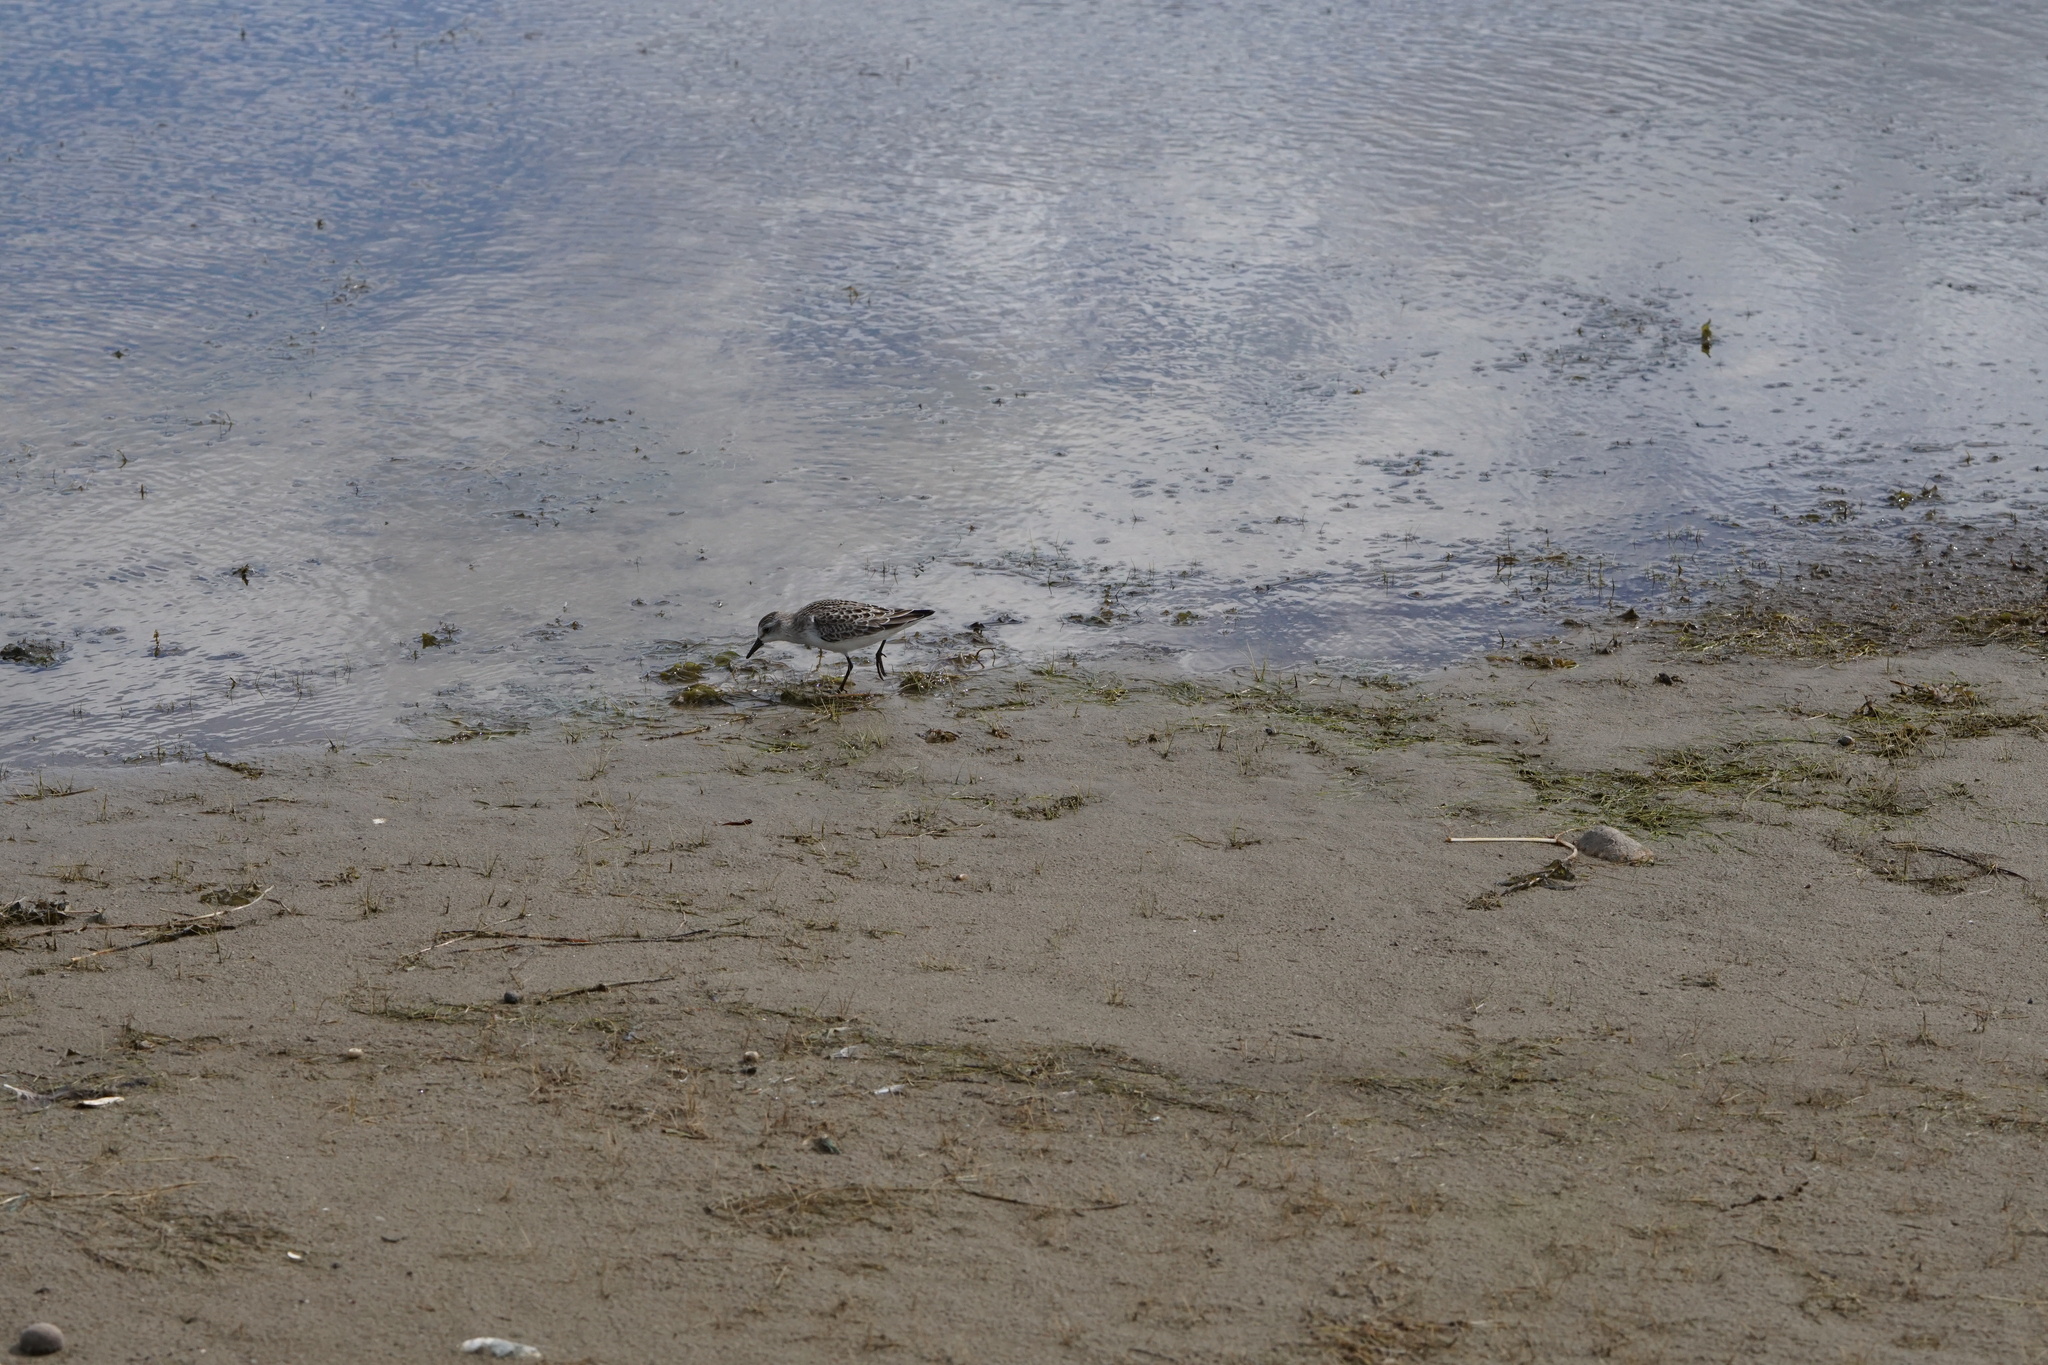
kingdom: Animalia
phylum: Chordata
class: Aves
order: Charadriiformes
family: Scolopacidae
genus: Calidris
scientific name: Calidris pusilla
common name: Semipalmated sandpiper
